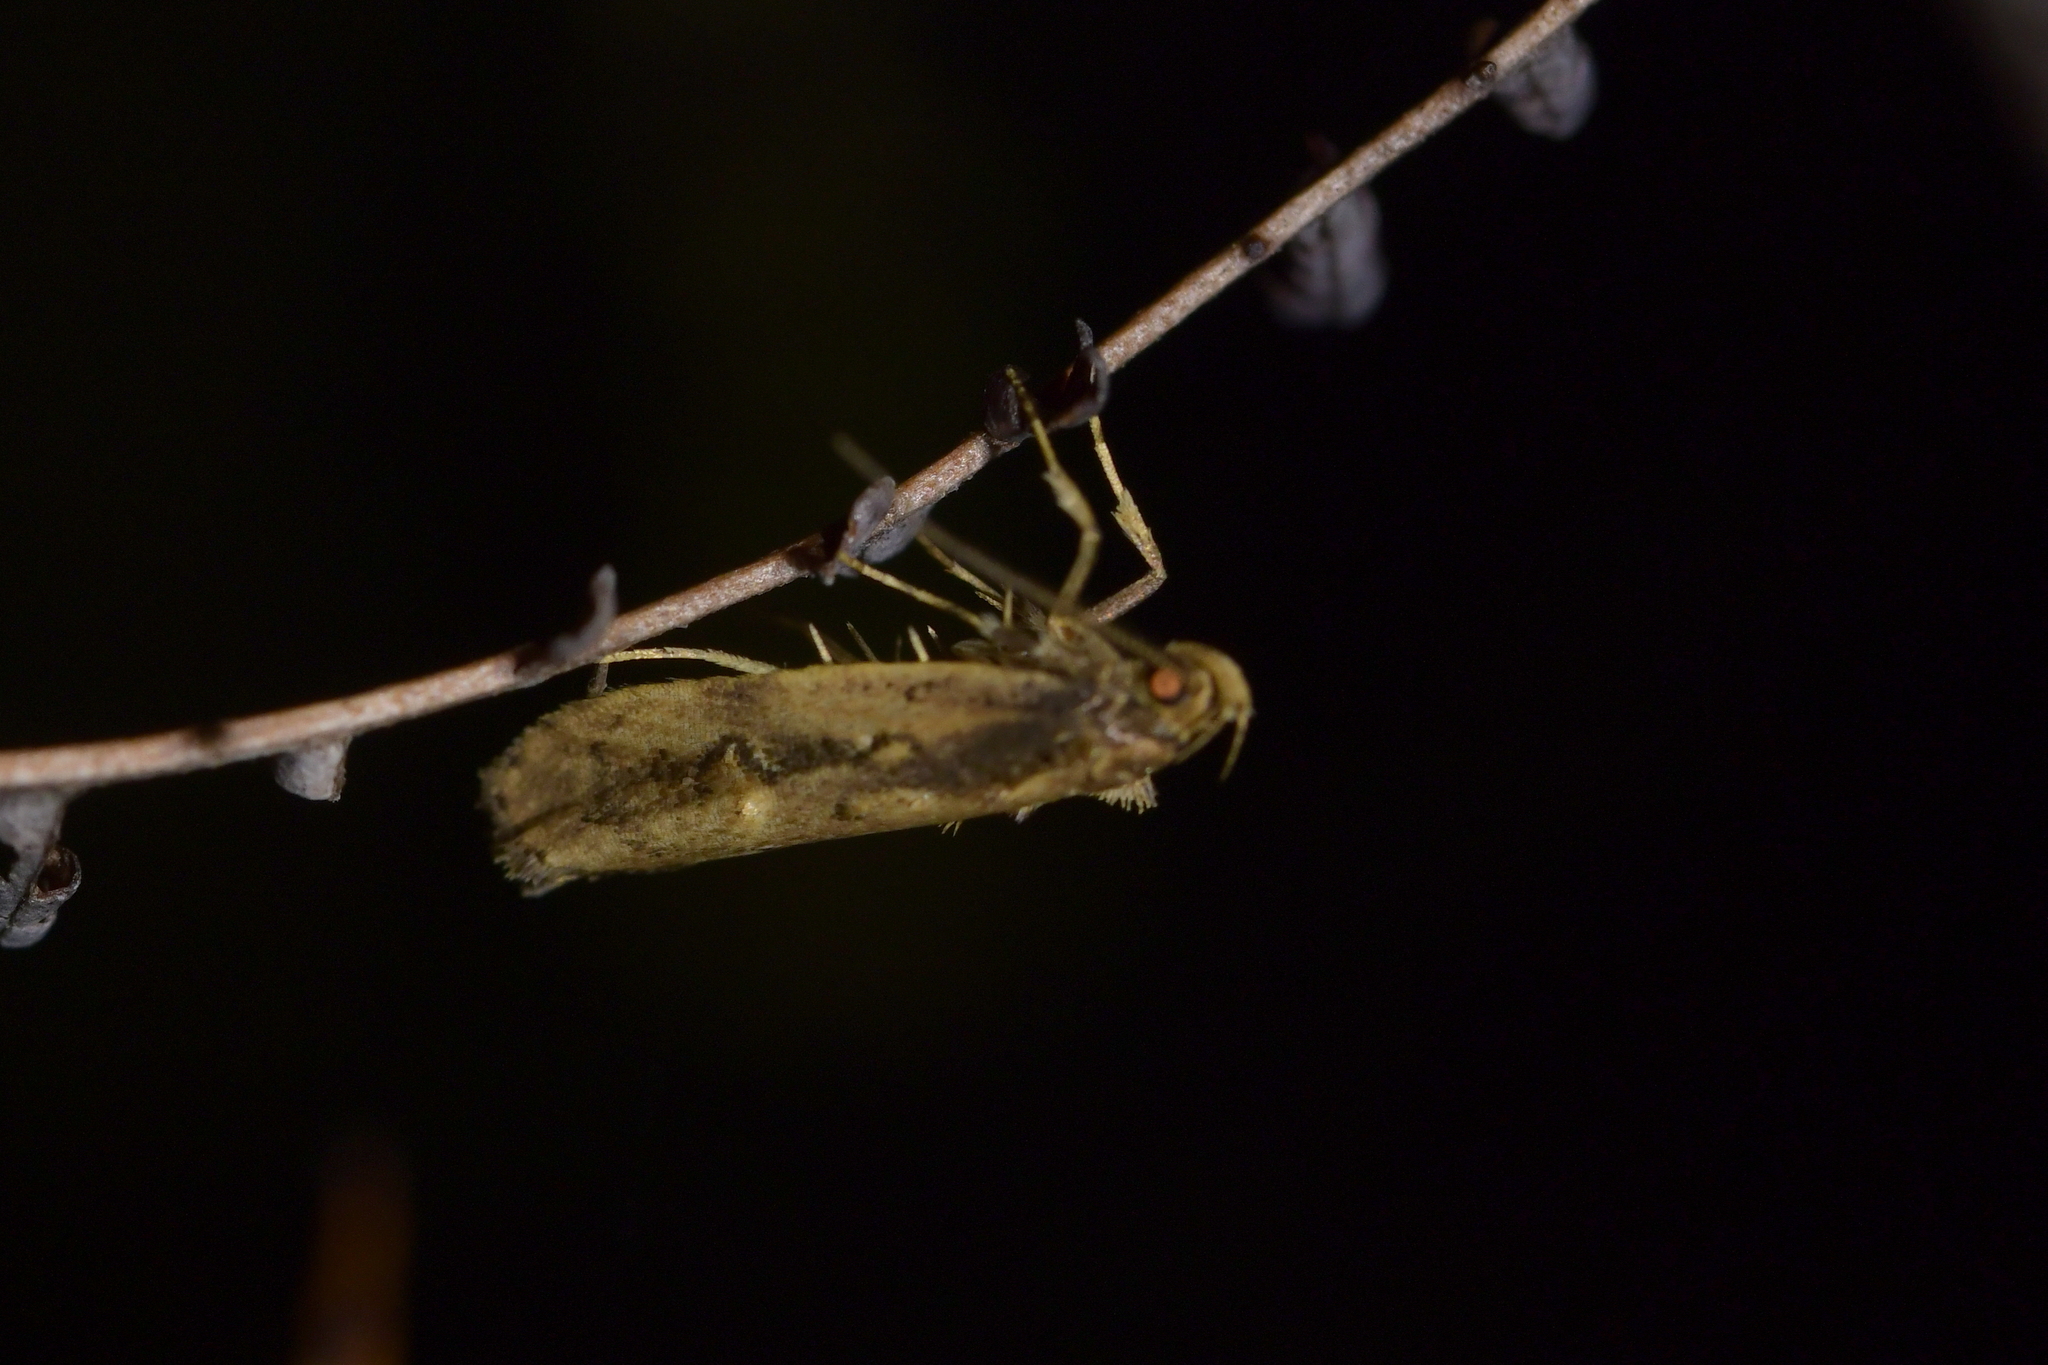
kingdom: Animalia
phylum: Arthropoda
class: Insecta
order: Lepidoptera
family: Oecophoridae
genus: Atomotricha
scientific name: Atomotricha isogama
